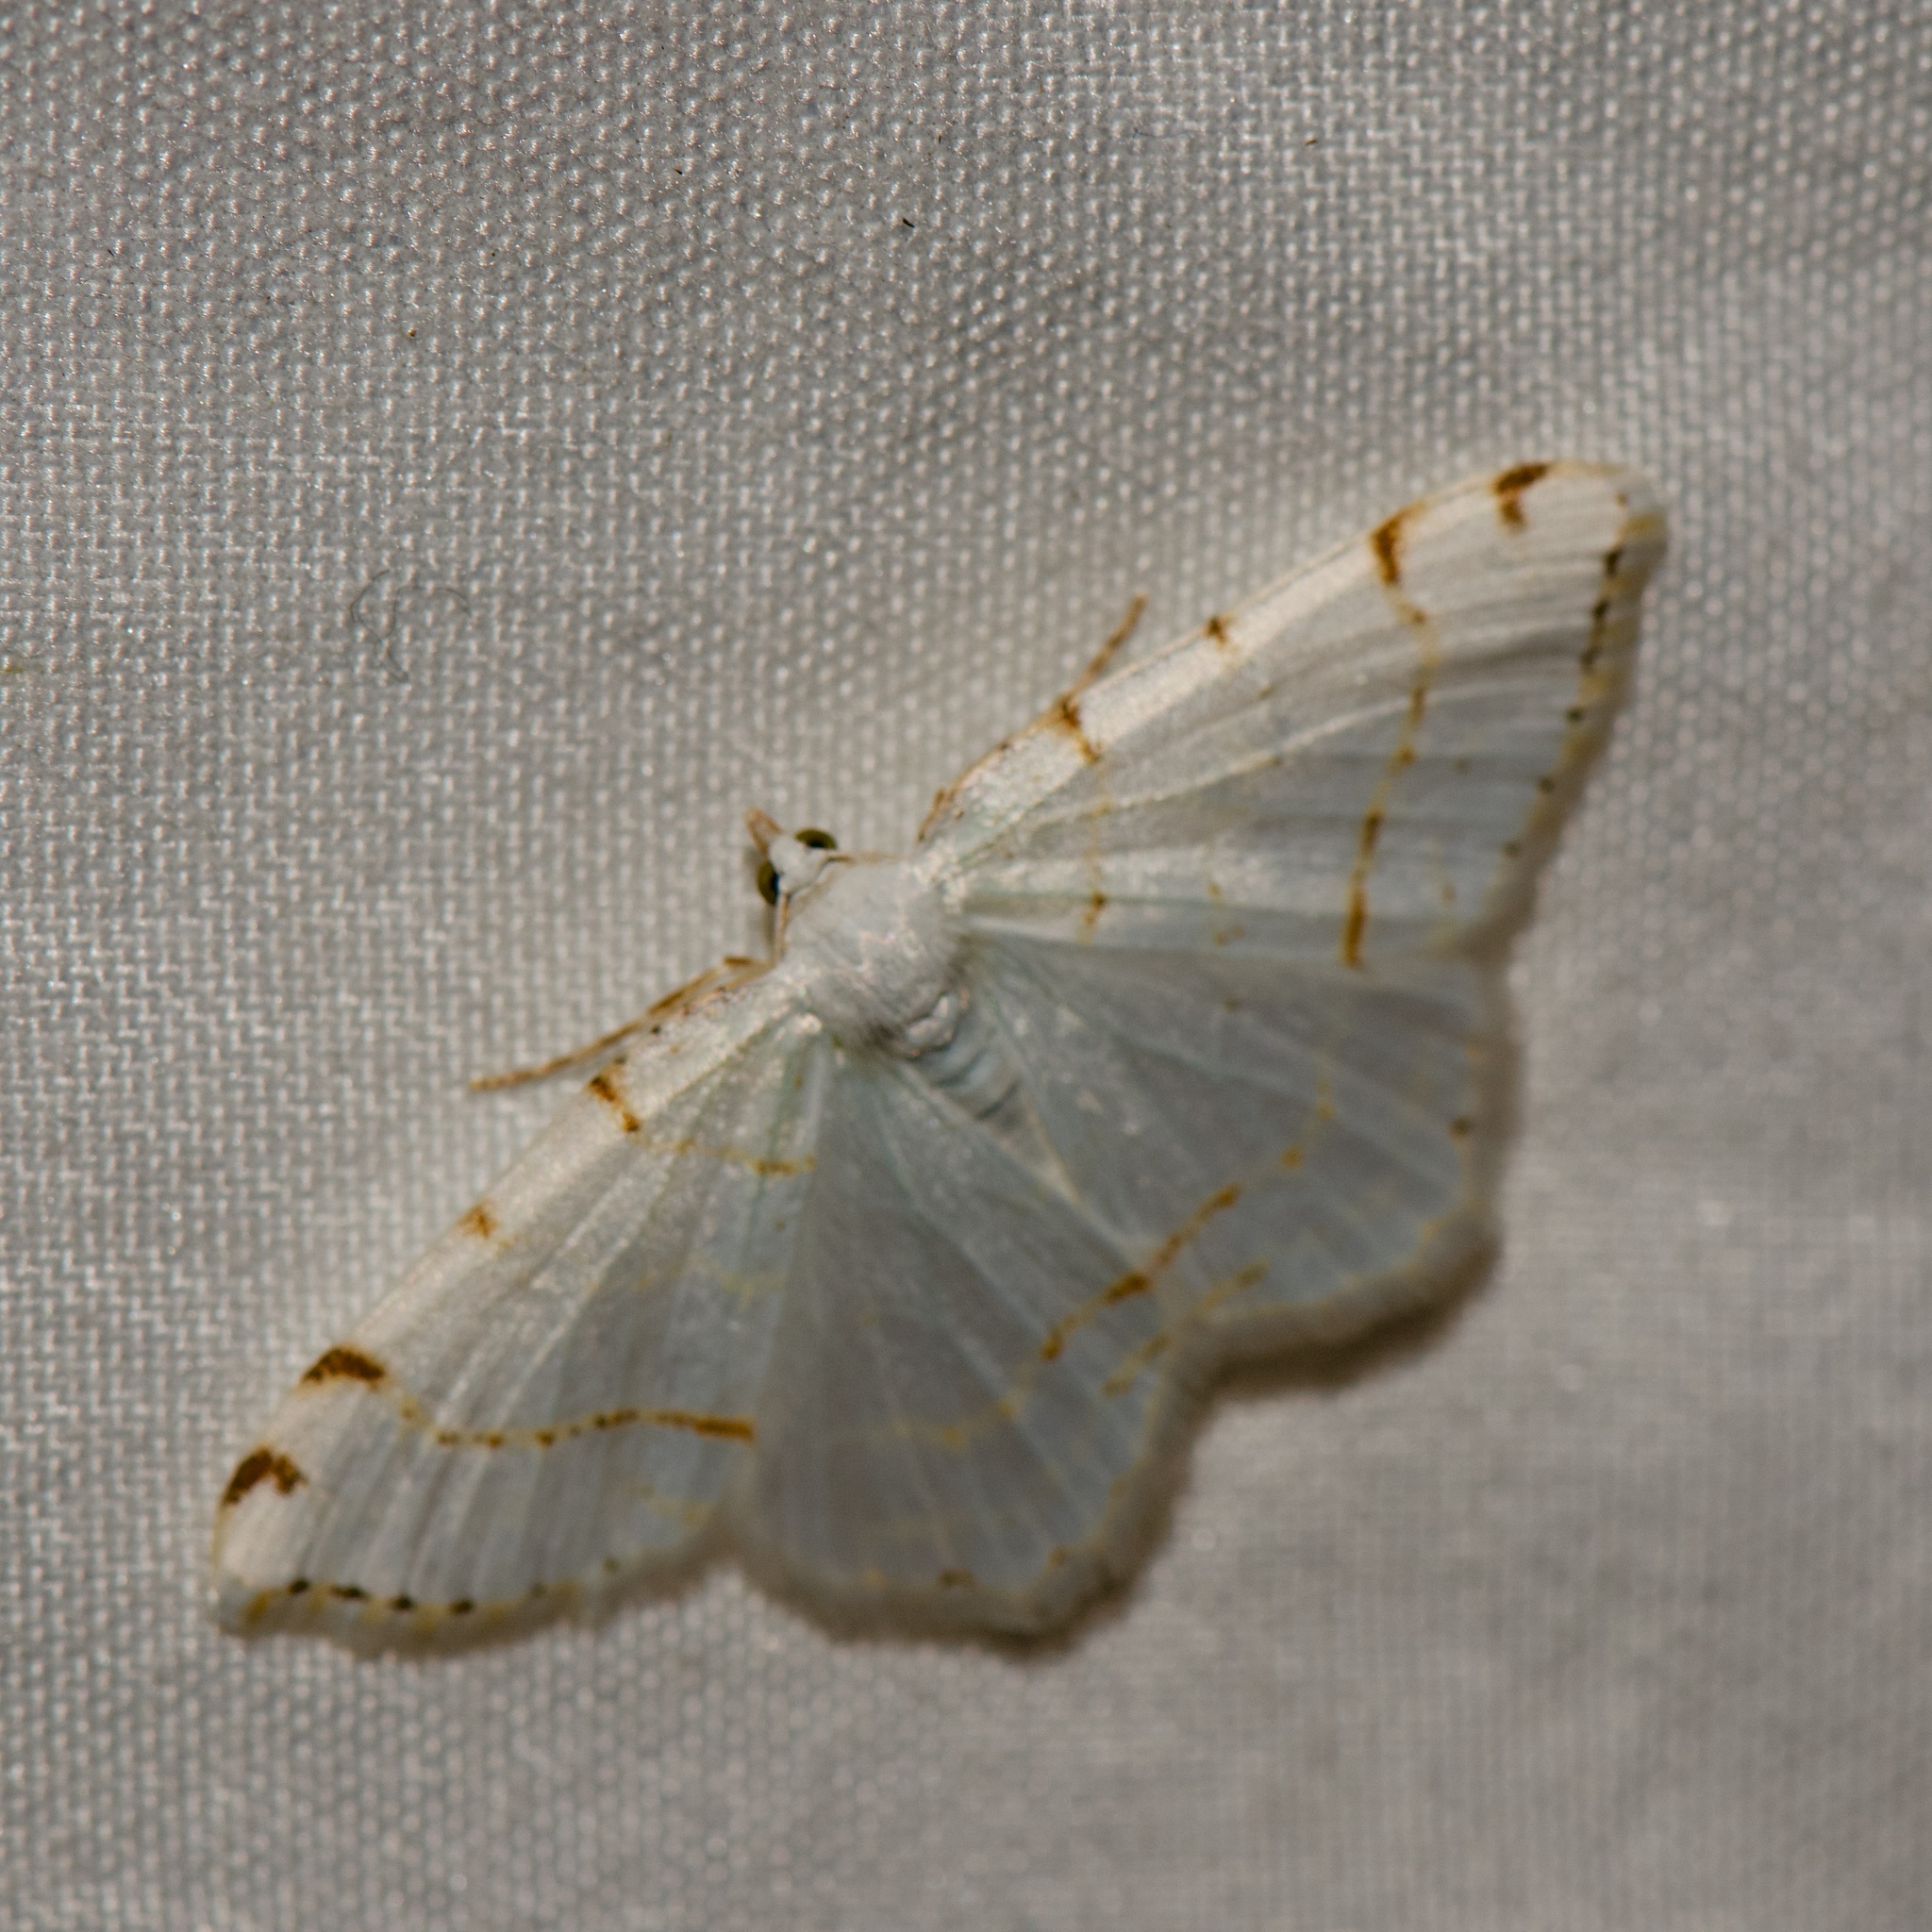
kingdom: Animalia
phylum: Arthropoda
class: Insecta
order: Lepidoptera
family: Geometridae
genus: Macaria
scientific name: Macaria pustularia
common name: Lesser maple spanworm moth
